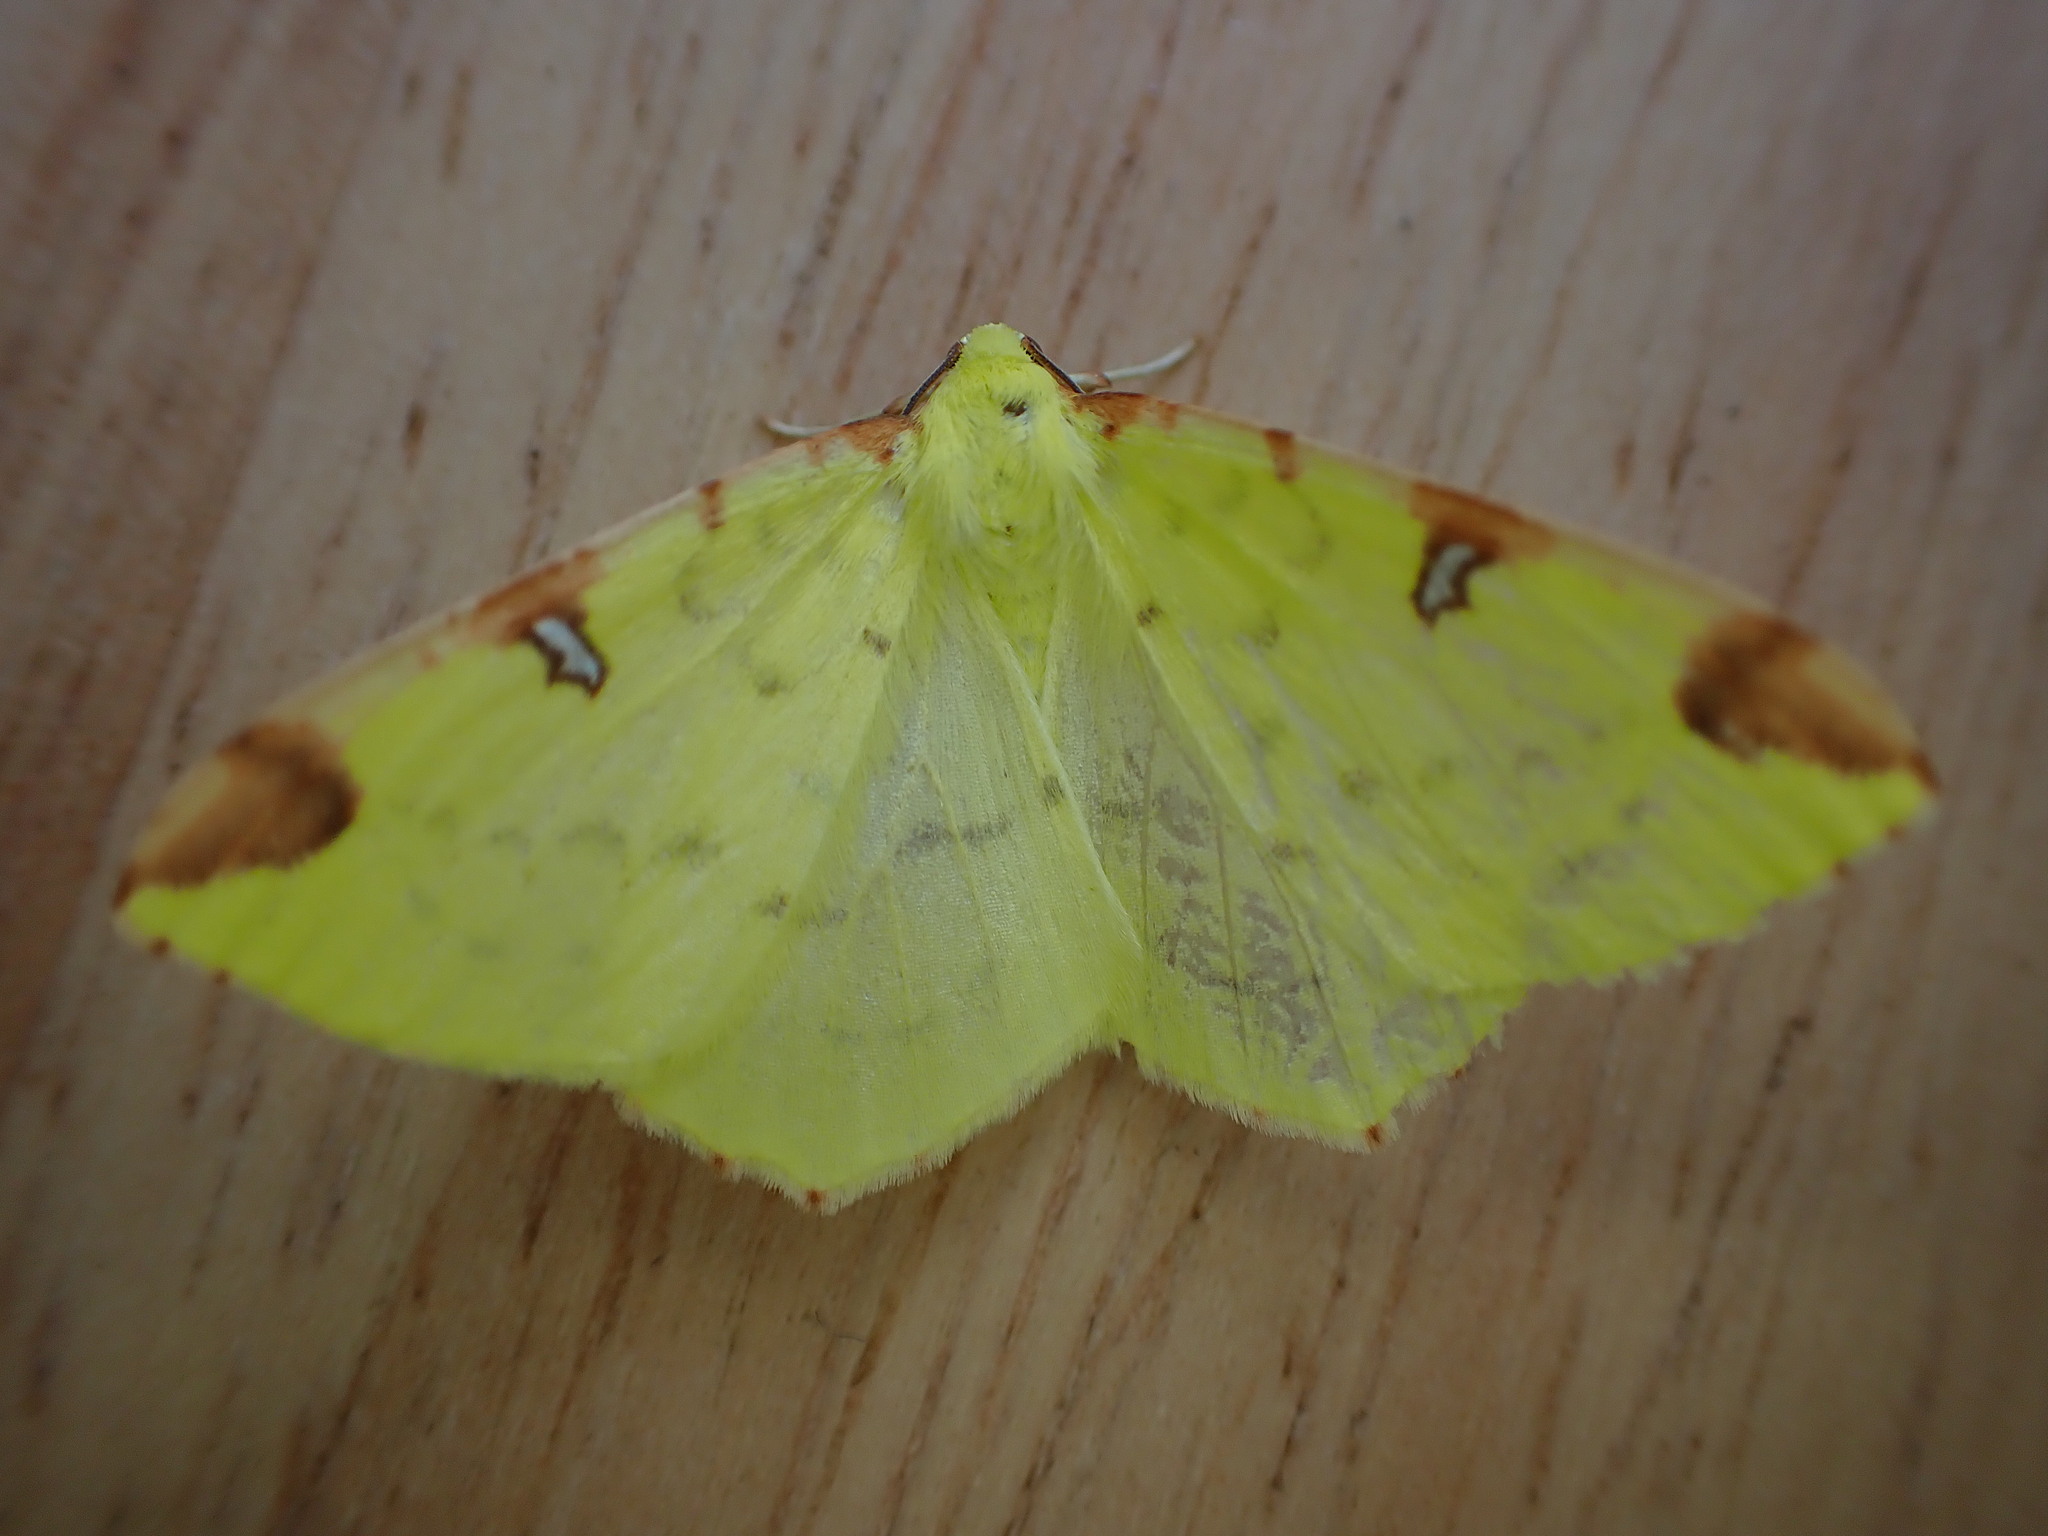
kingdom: Animalia
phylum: Arthropoda
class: Insecta
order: Lepidoptera
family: Geometridae
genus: Opisthograptis
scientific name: Opisthograptis luteolata
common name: Brimstone moth
